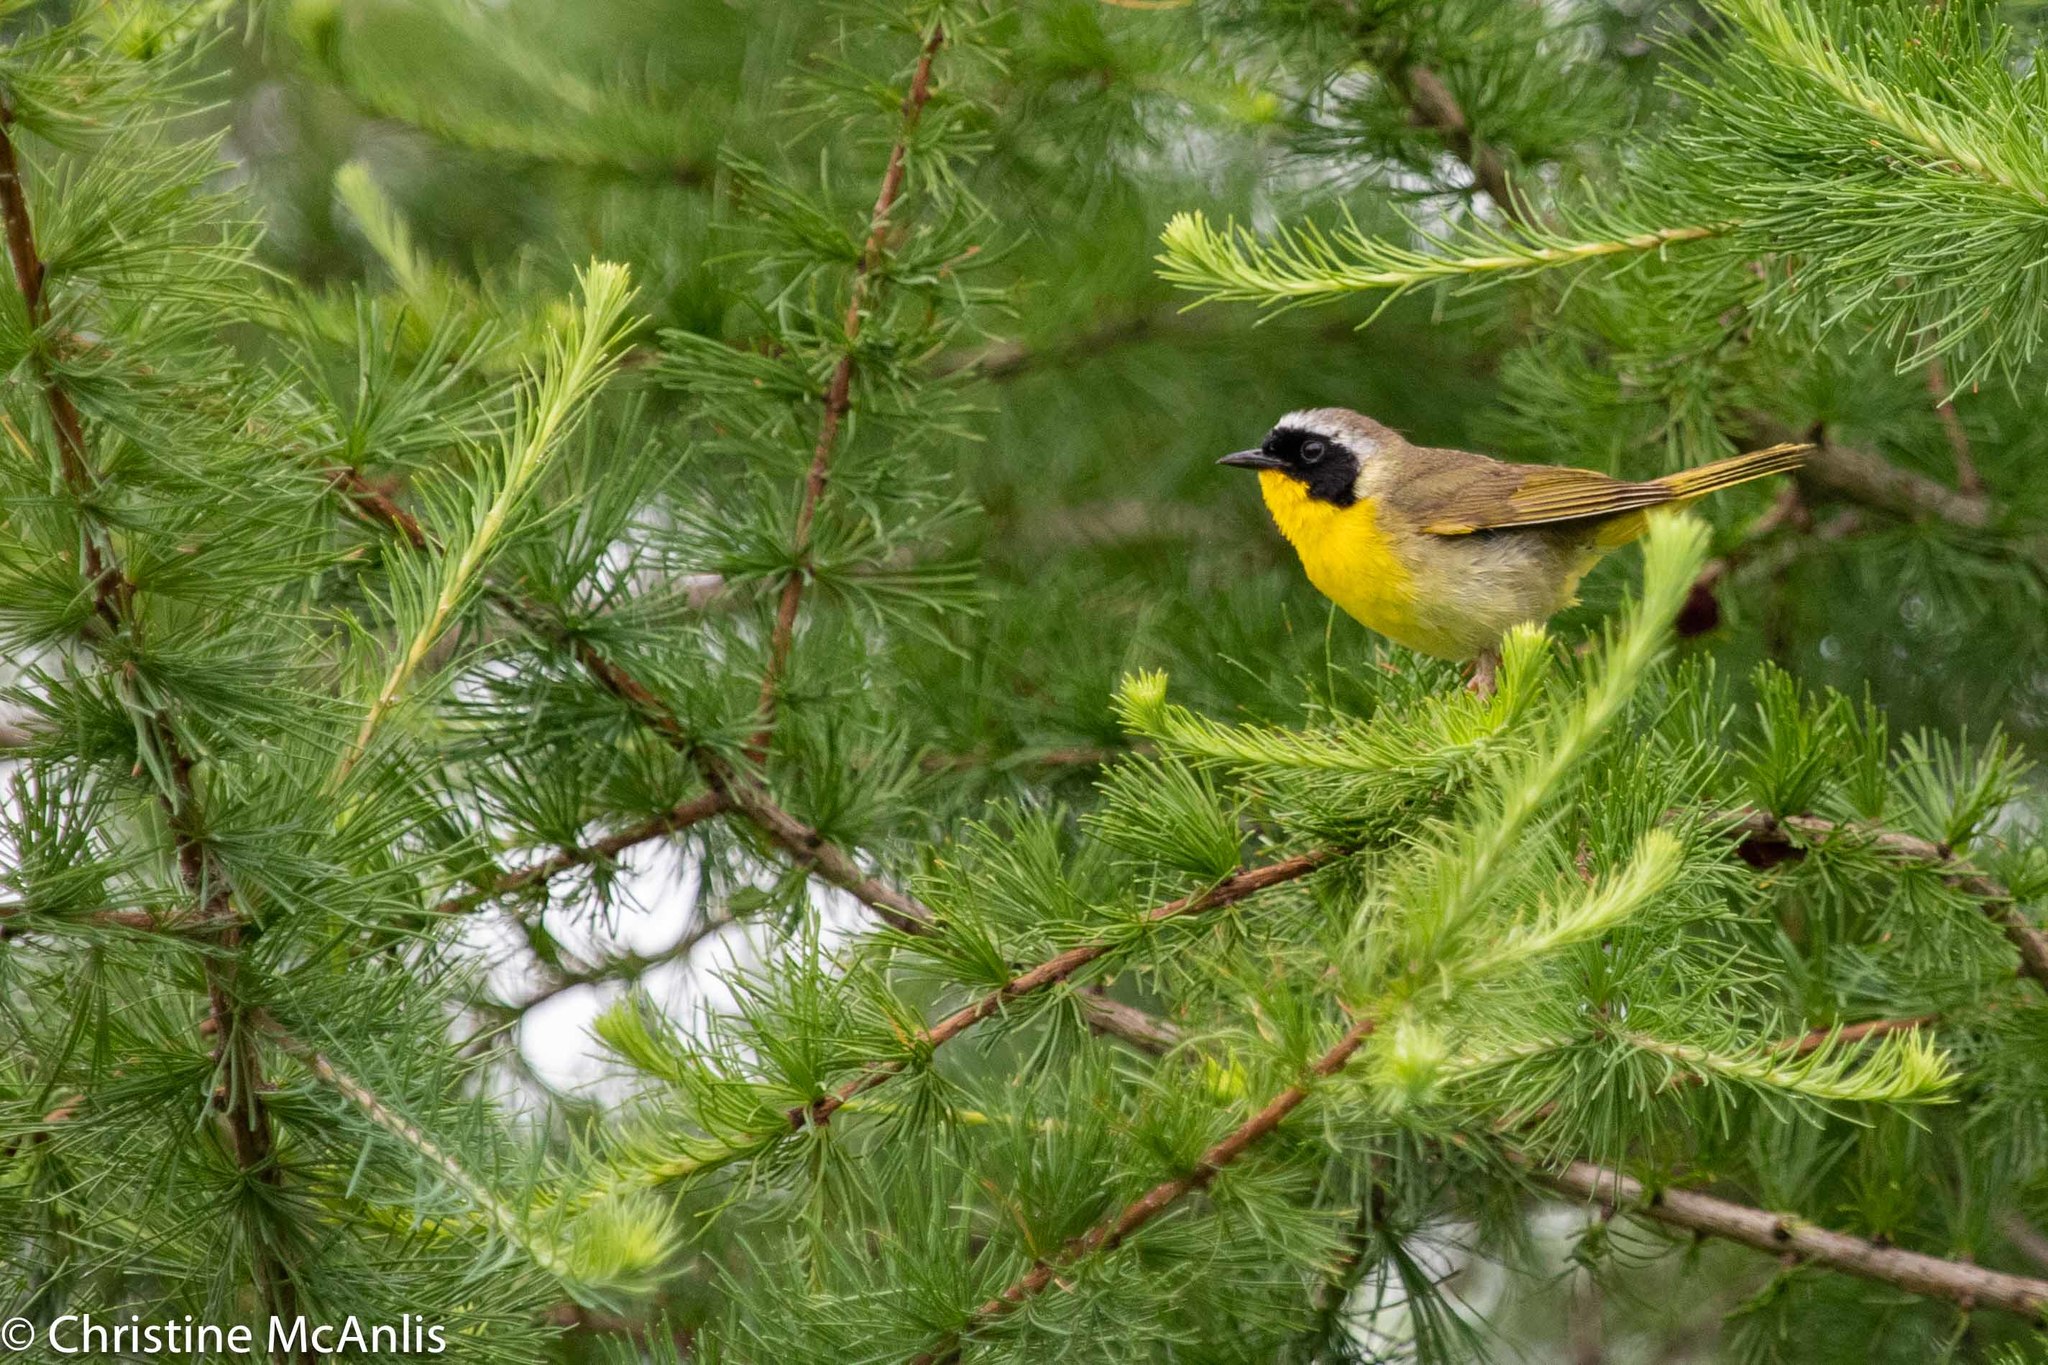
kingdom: Animalia
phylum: Chordata
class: Aves
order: Passeriformes
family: Parulidae
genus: Geothlypis
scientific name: Geothlypis trichas
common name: Common yellowthroat
